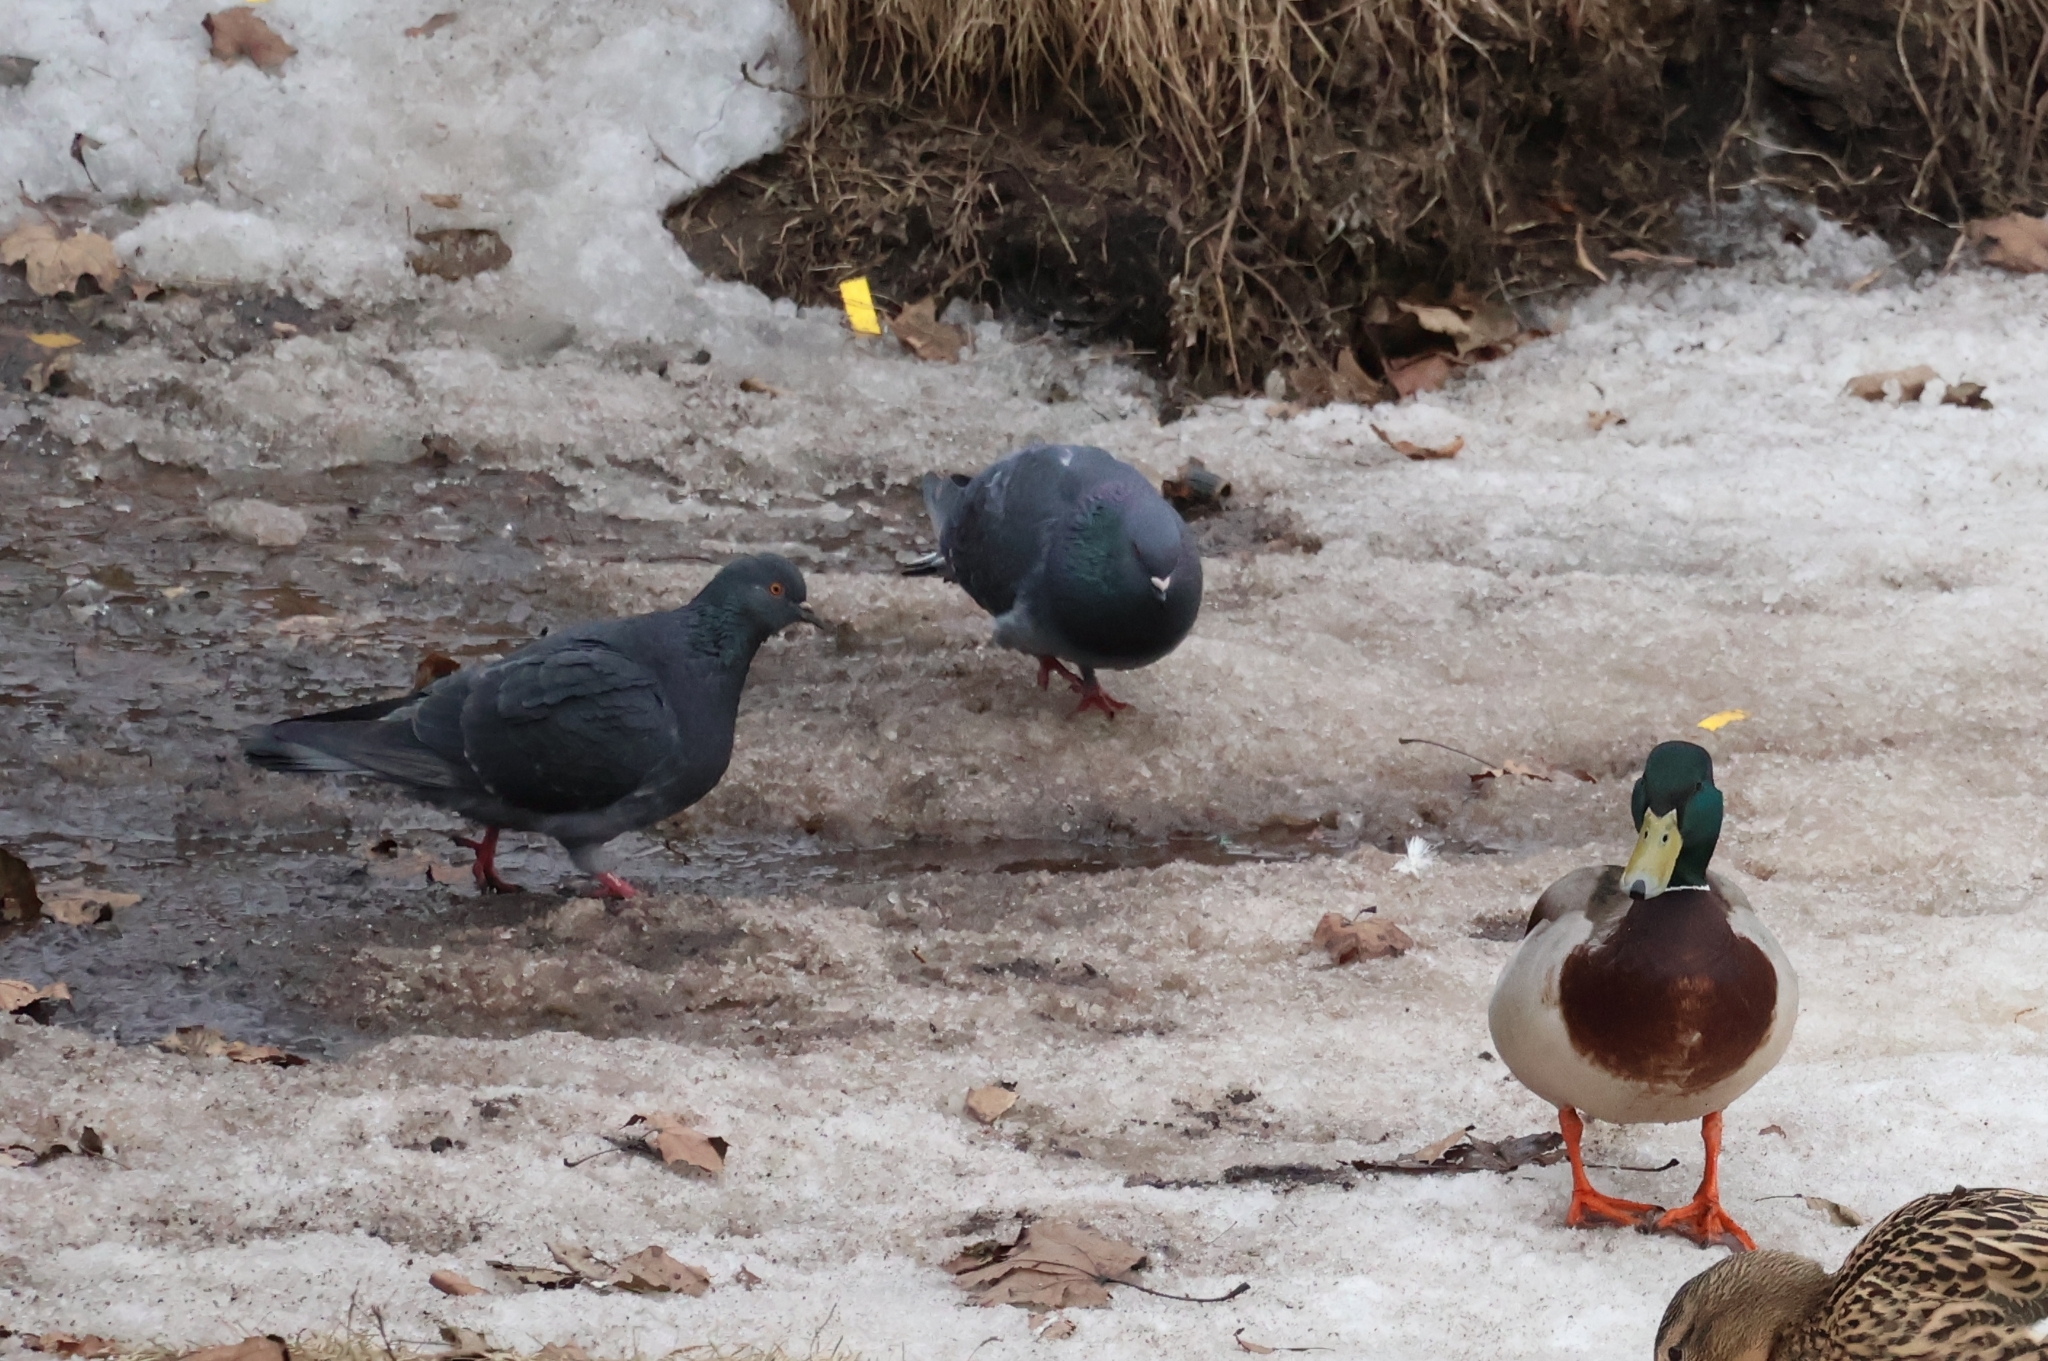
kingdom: Animalia
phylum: Chordata
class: Aves
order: Columbiformes
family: Columbidae
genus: Columba
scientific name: Columba livia
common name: Rock pigeon
